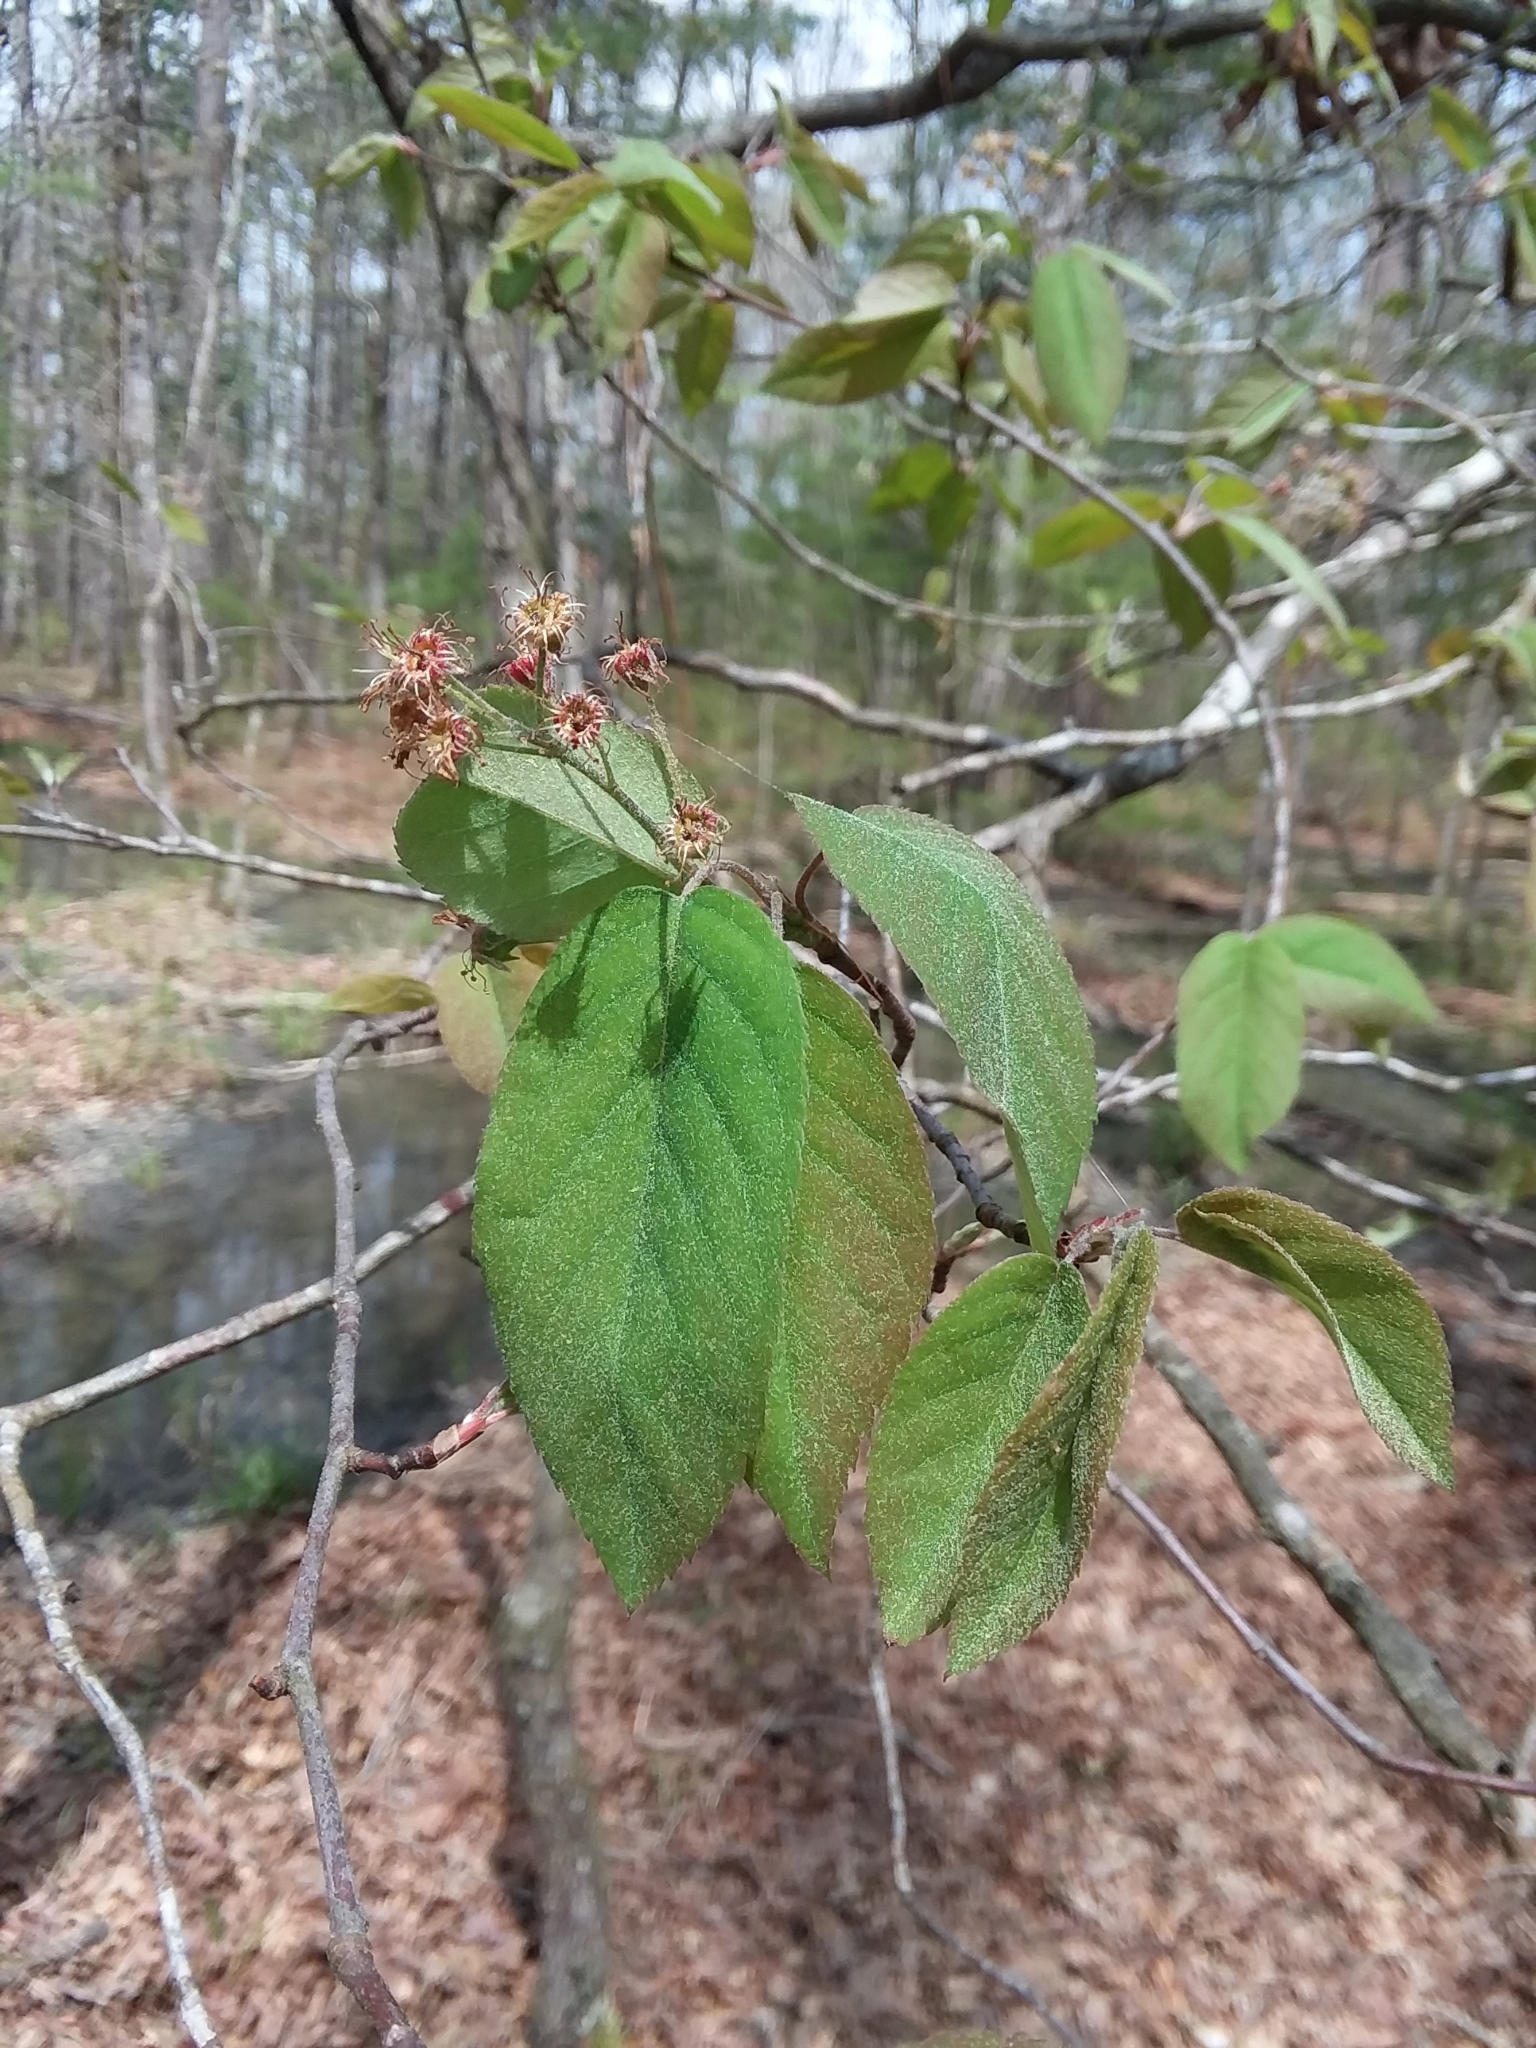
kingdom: Plantae
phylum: Tracheophyta
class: Magnoliopsida
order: Rosales
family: Rosaceae
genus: Amelanchier
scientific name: Amelanchier arborea
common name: Downy serviceberry
